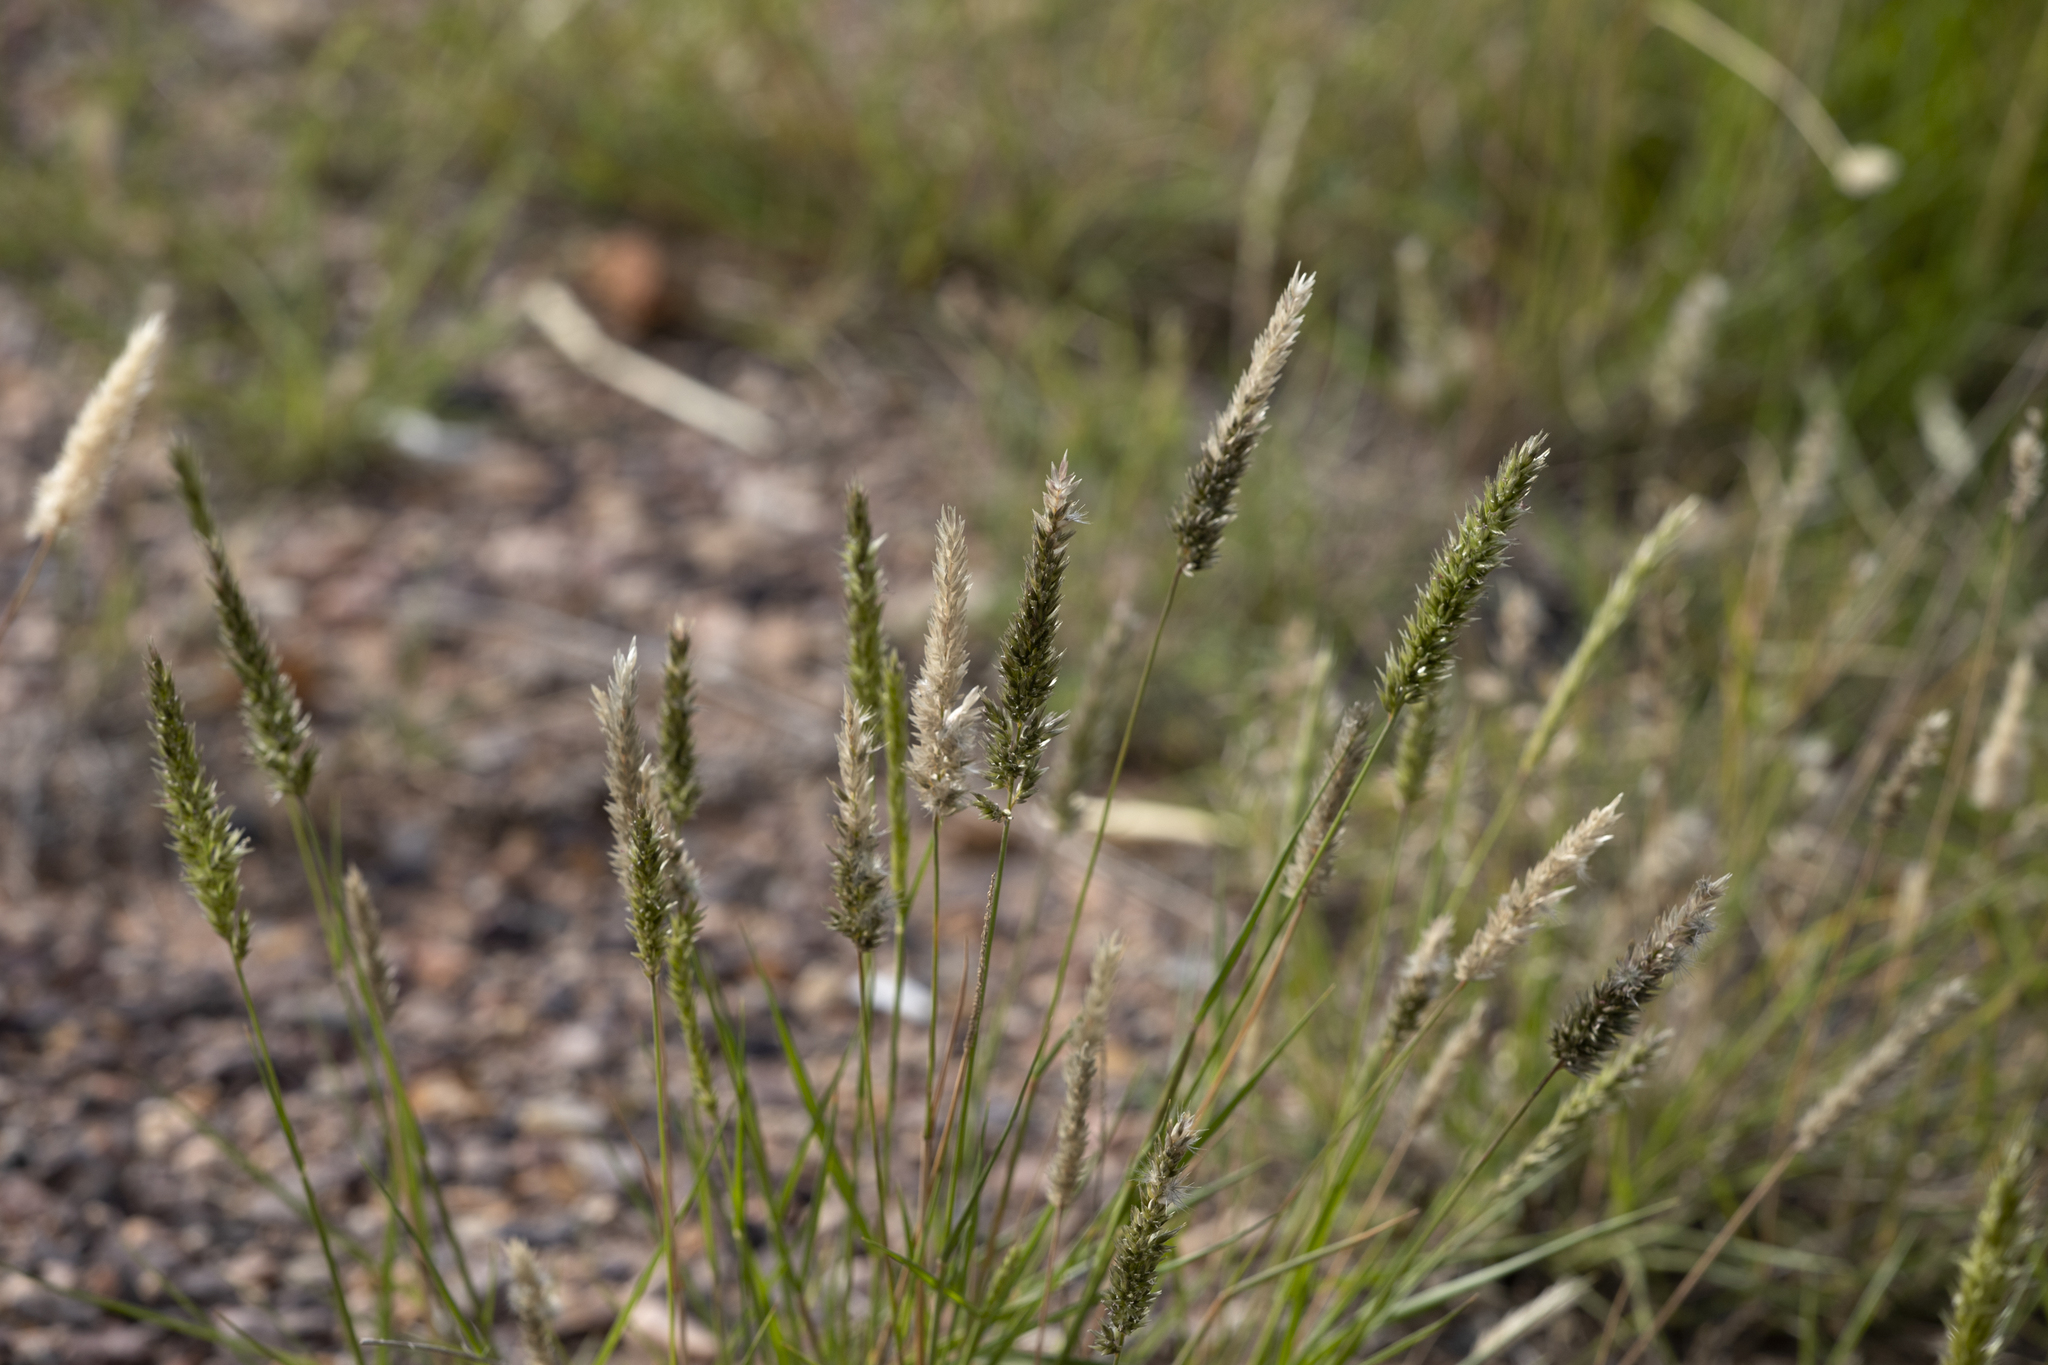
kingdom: Plantae
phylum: Tracheophyta
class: Liliopsida
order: Poales
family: Poaceae
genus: Enneapogon
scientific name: Enneapogon nigricans
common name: Pappus grass
